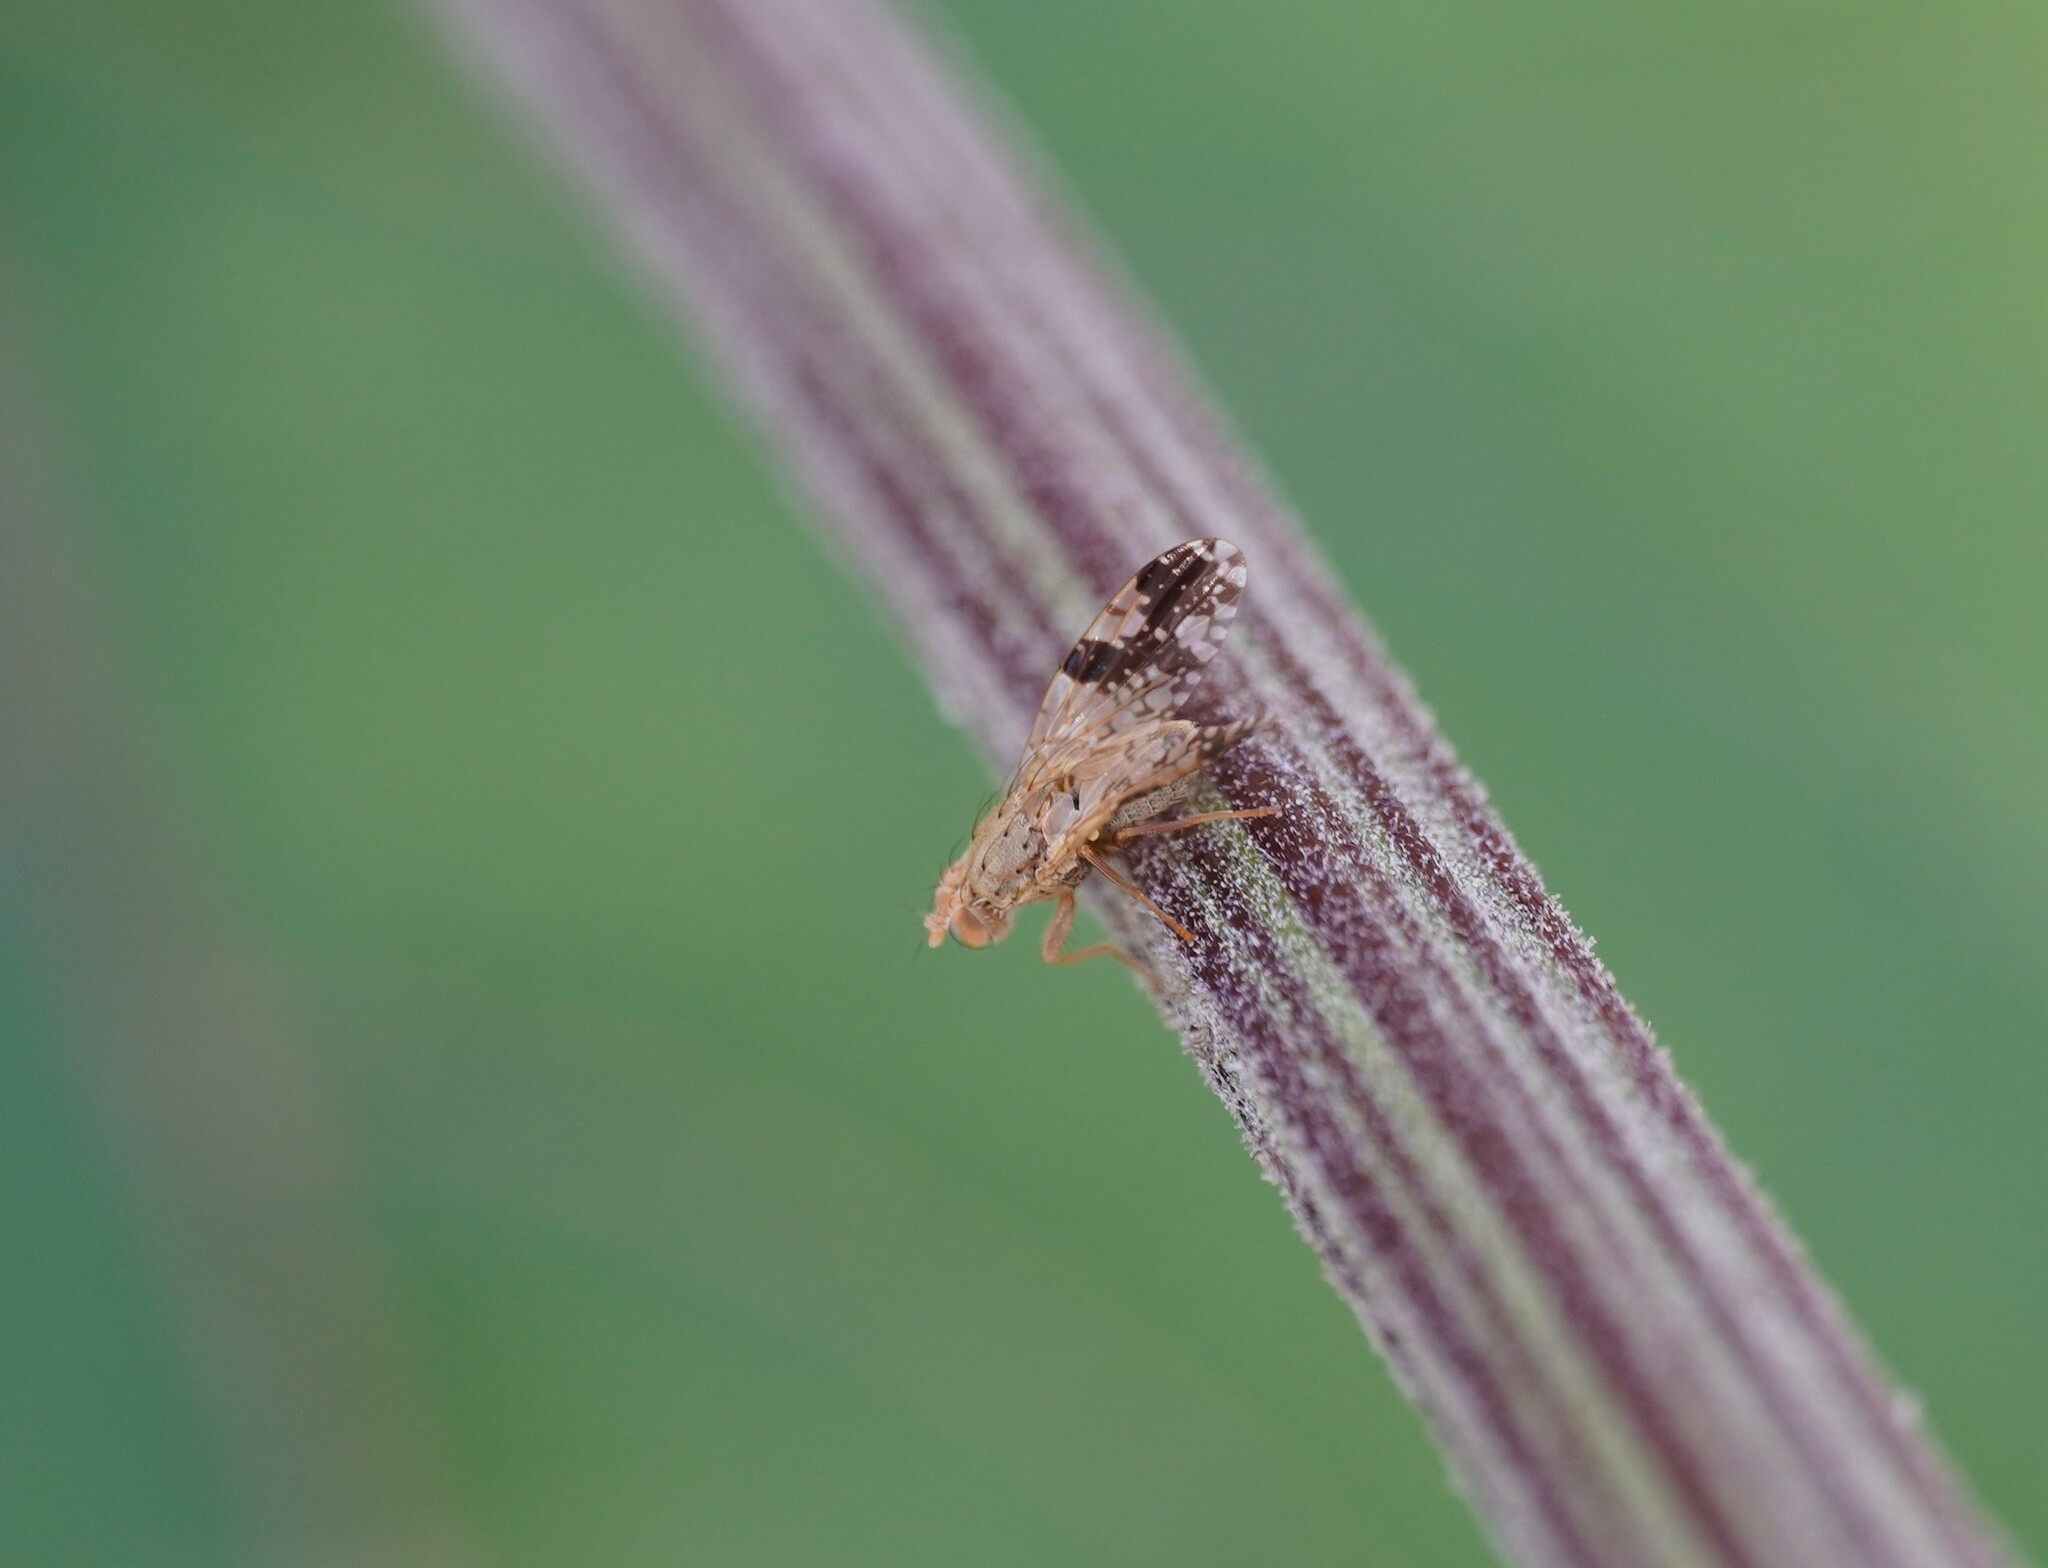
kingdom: Animalia
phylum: Arthropoda
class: Insecta
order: Diptera
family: Tephritidae
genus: Tephritis
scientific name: Tephritis bardanae
